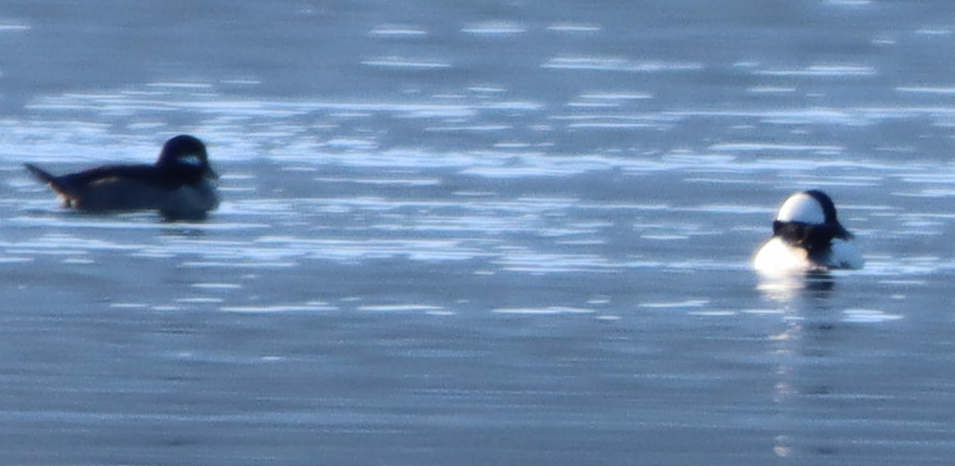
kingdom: Animalia
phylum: Chordata
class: Aves
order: Anseriformes
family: Anatidae
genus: Bucephala
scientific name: Bucephala albeola
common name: Bufflehead
